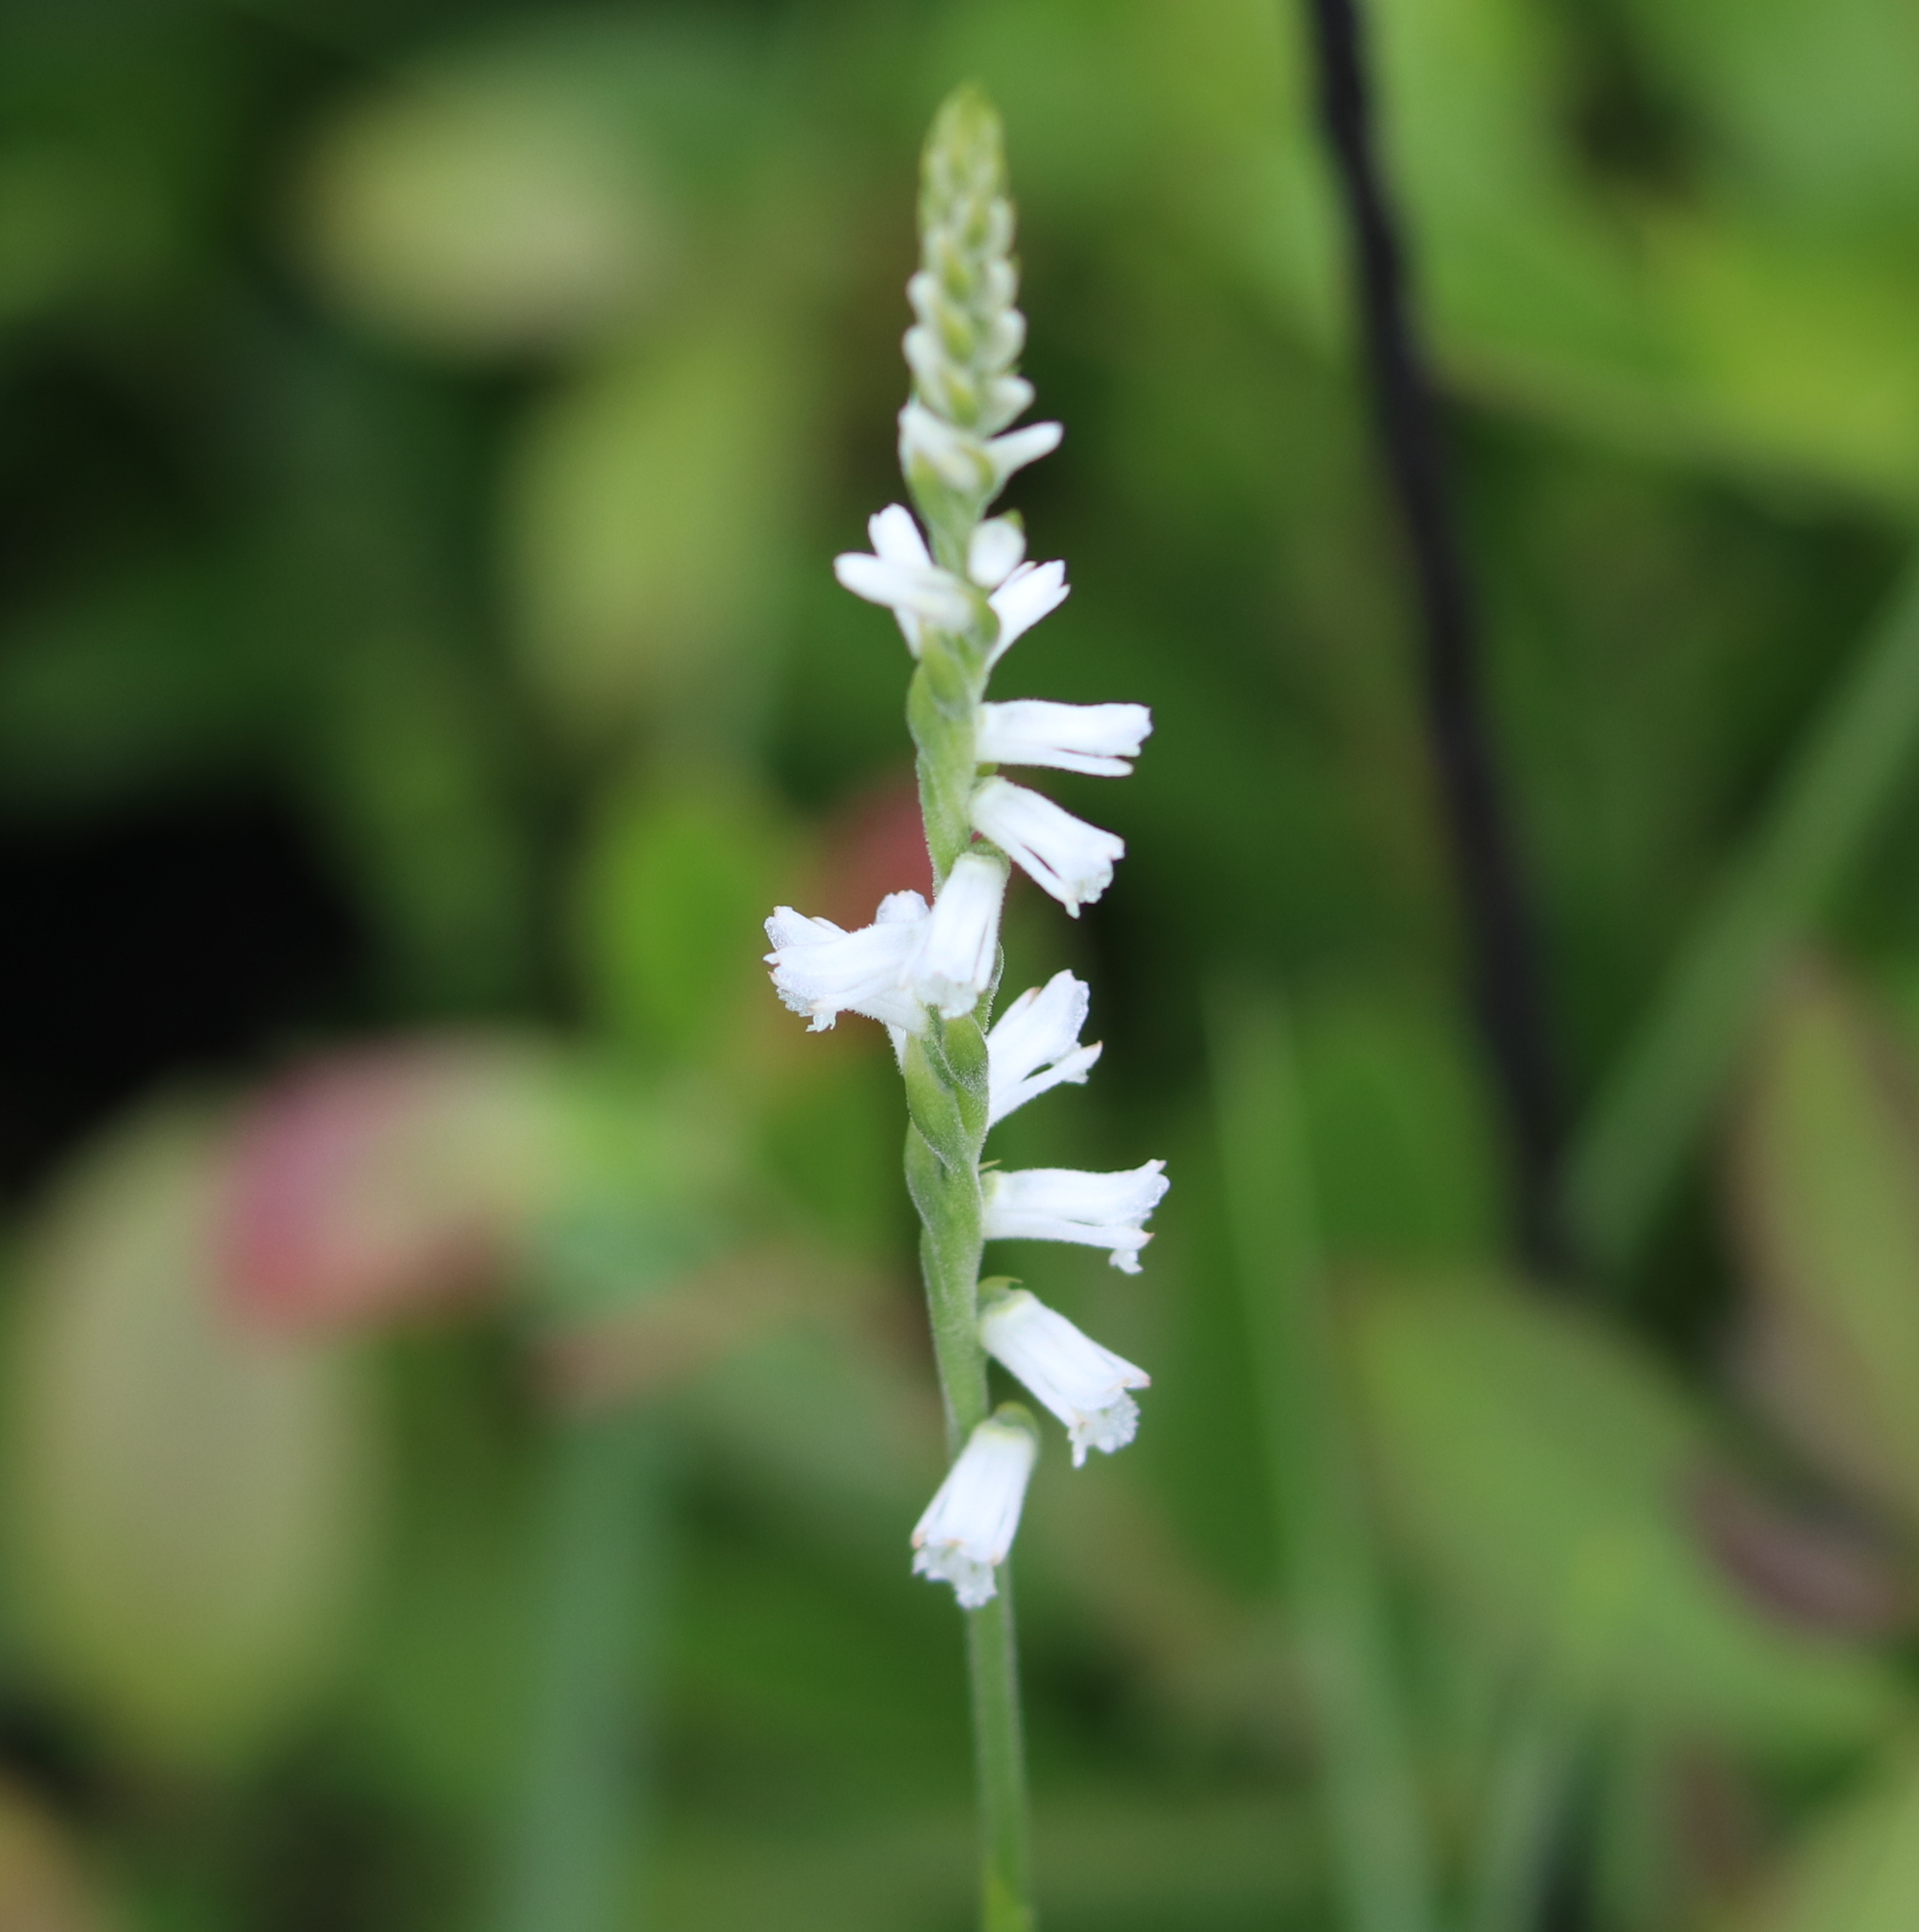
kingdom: Plantae
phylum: Tracheophyta
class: Liliopsida
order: Asparagales
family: Orchidaceae
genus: Spiranthes
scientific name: Spiranthes praecox
